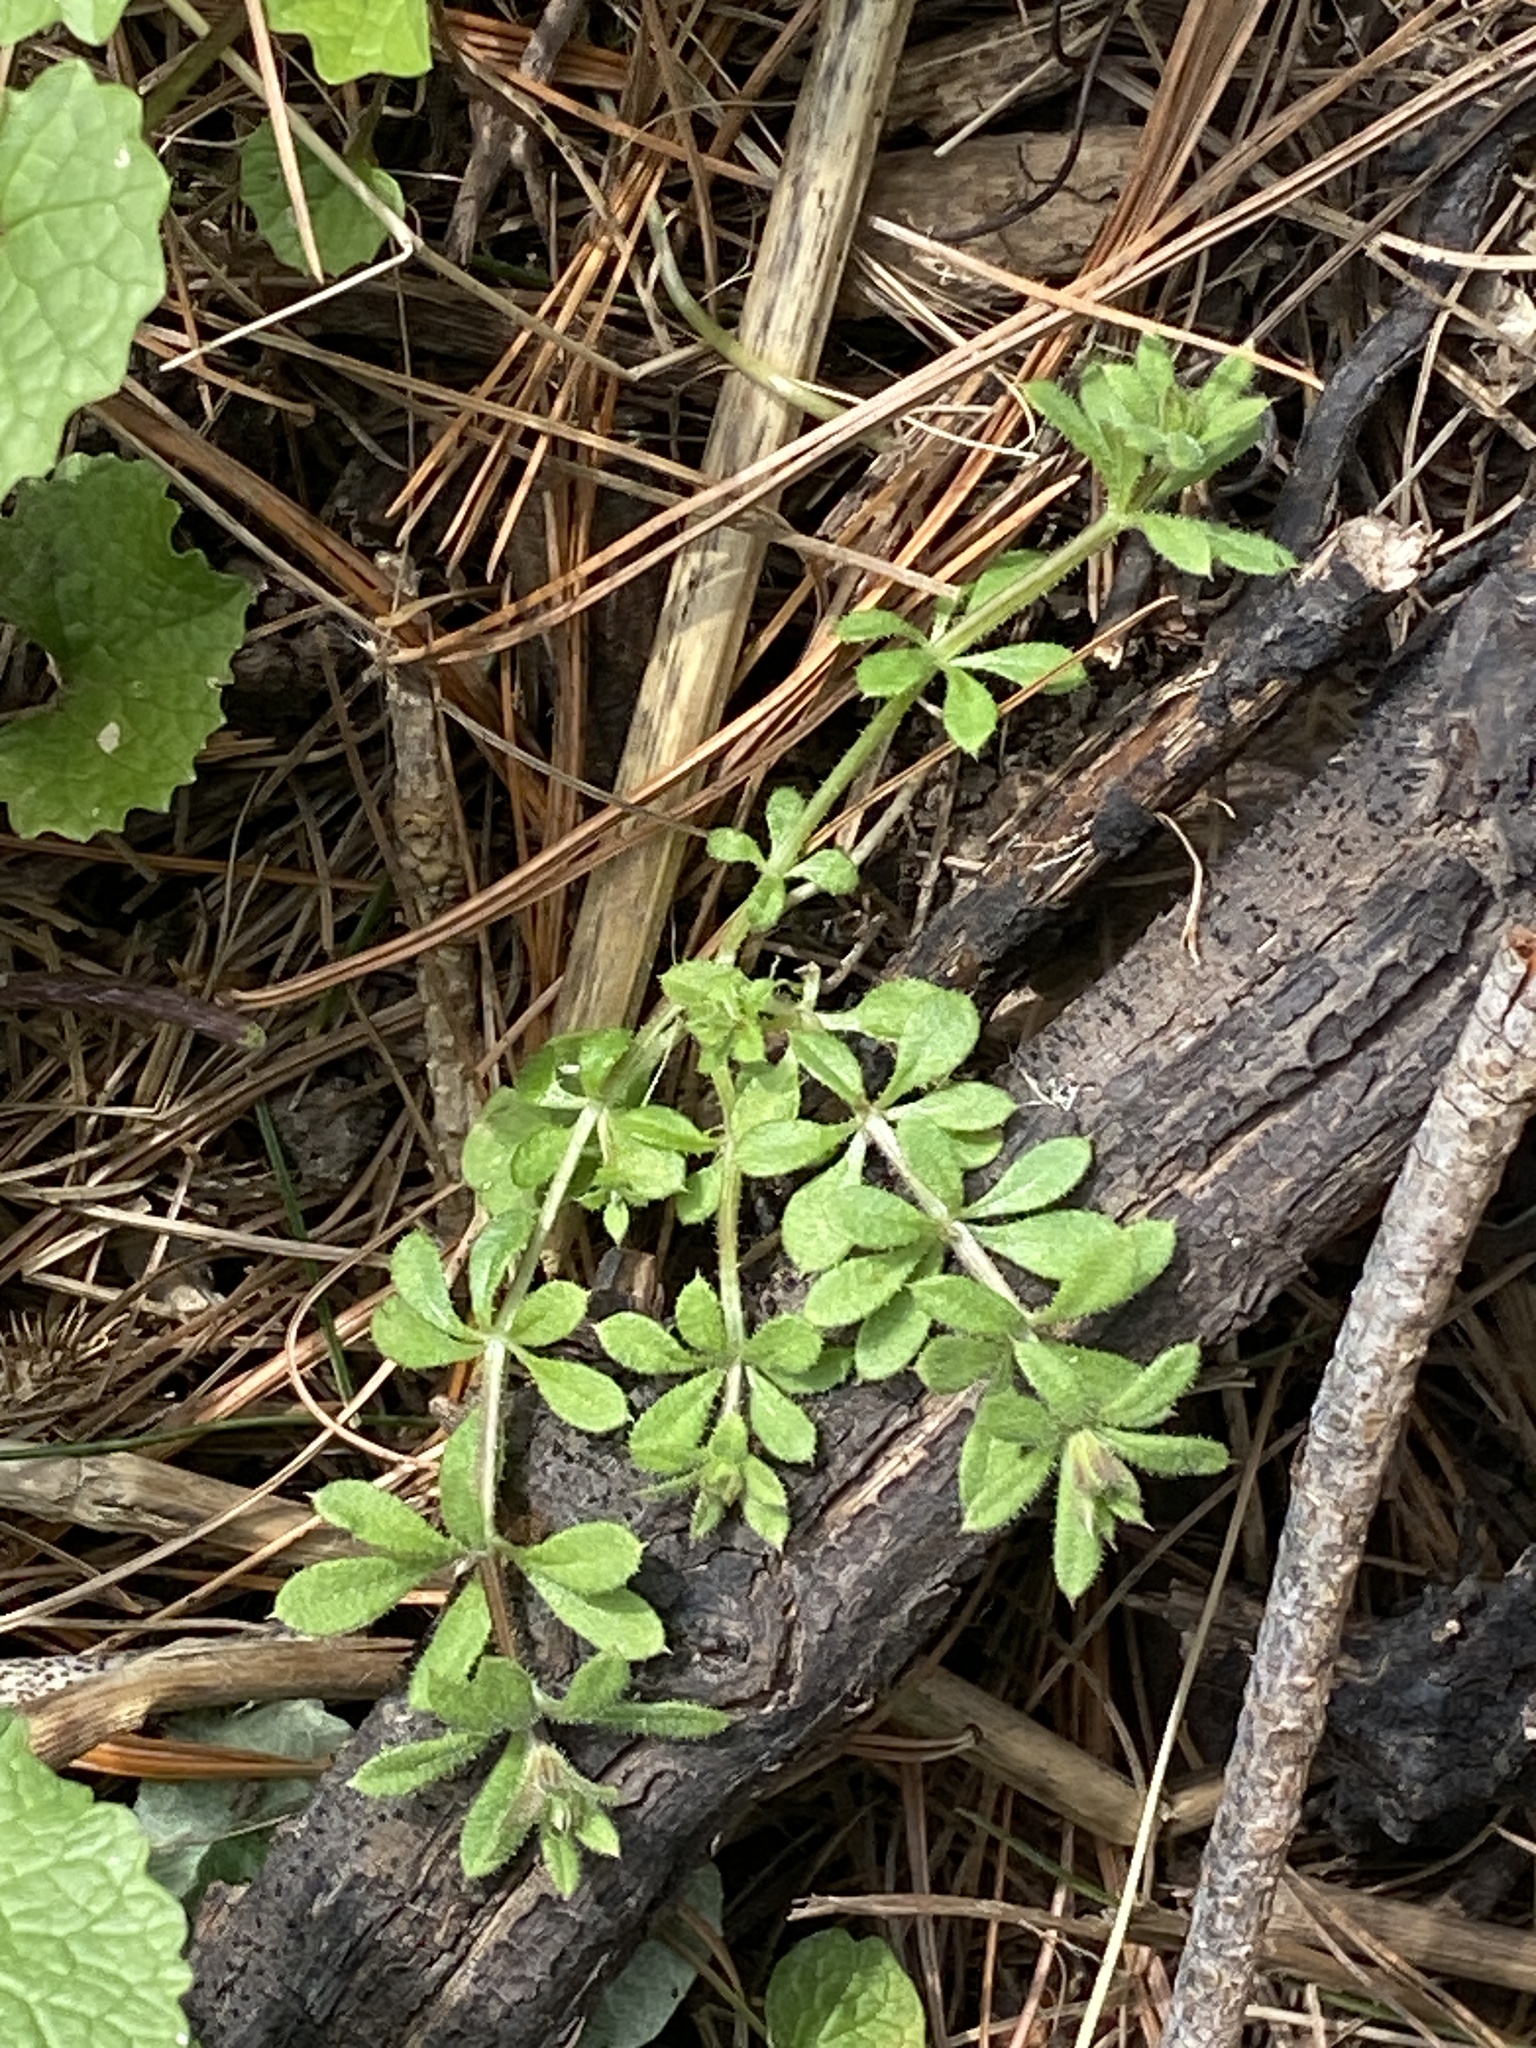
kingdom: Plantae
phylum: Tracheophyta
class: Magnoliopsida
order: Gentianales
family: Rubiaceae
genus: Galium
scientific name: Galium aparine
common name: Cleavers
